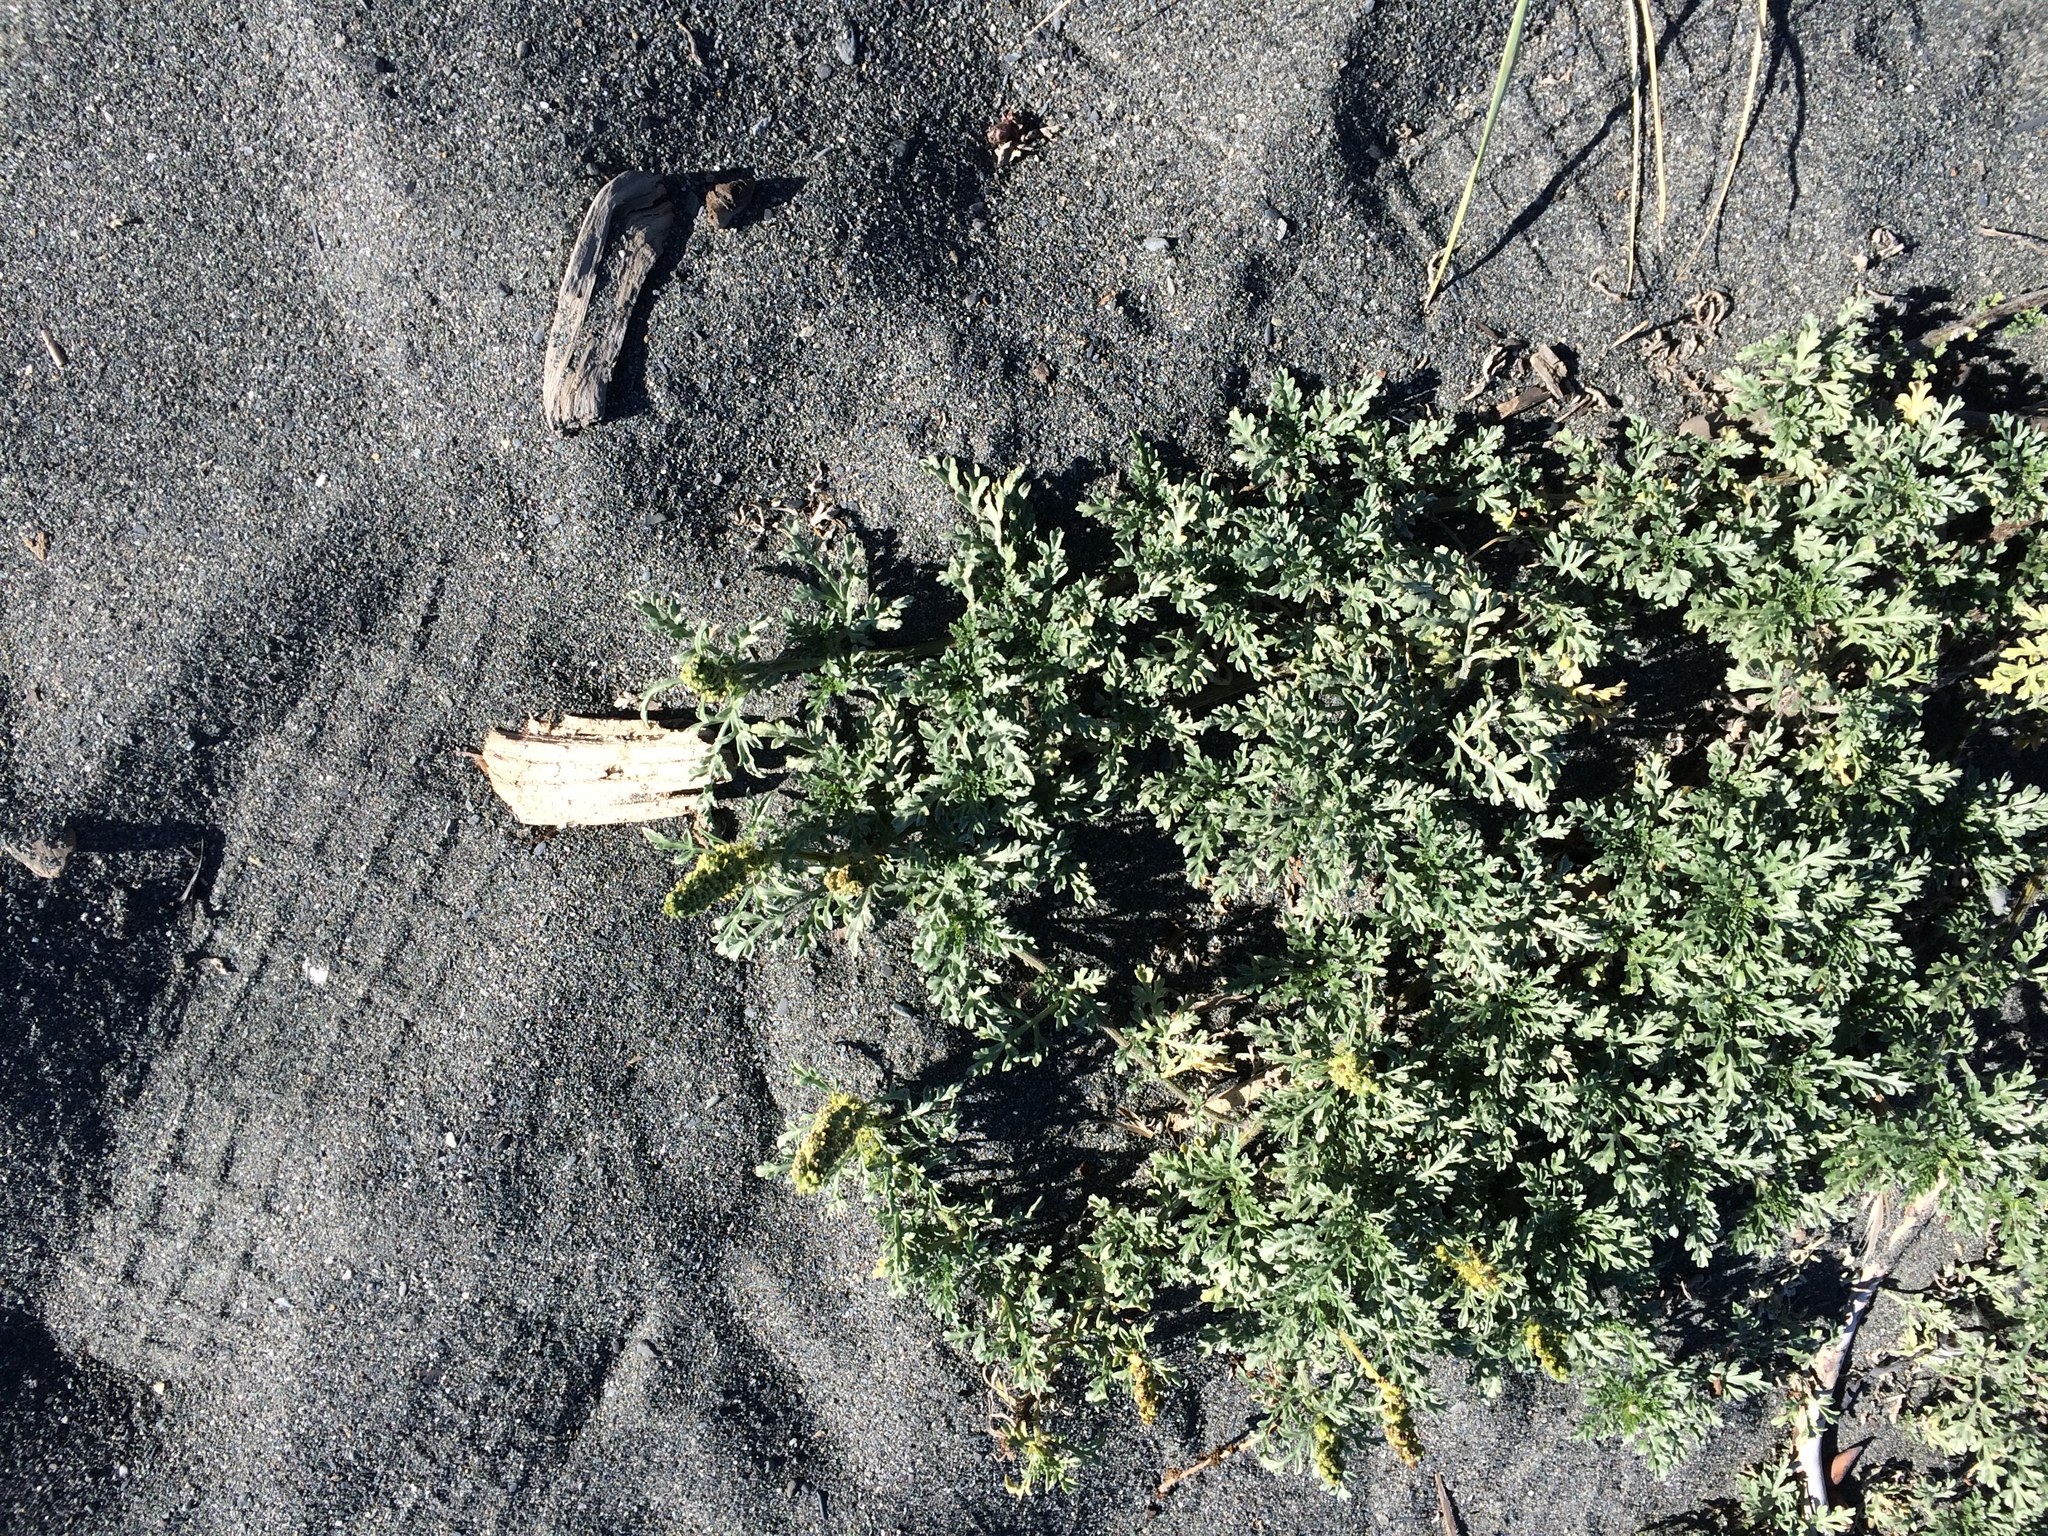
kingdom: Plantae
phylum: Tracheophyta
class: Magnoliopsida
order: Asterales
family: Asteraceae
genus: Ambrosia
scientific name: Ambrosia chamissonis
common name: Beachbur
